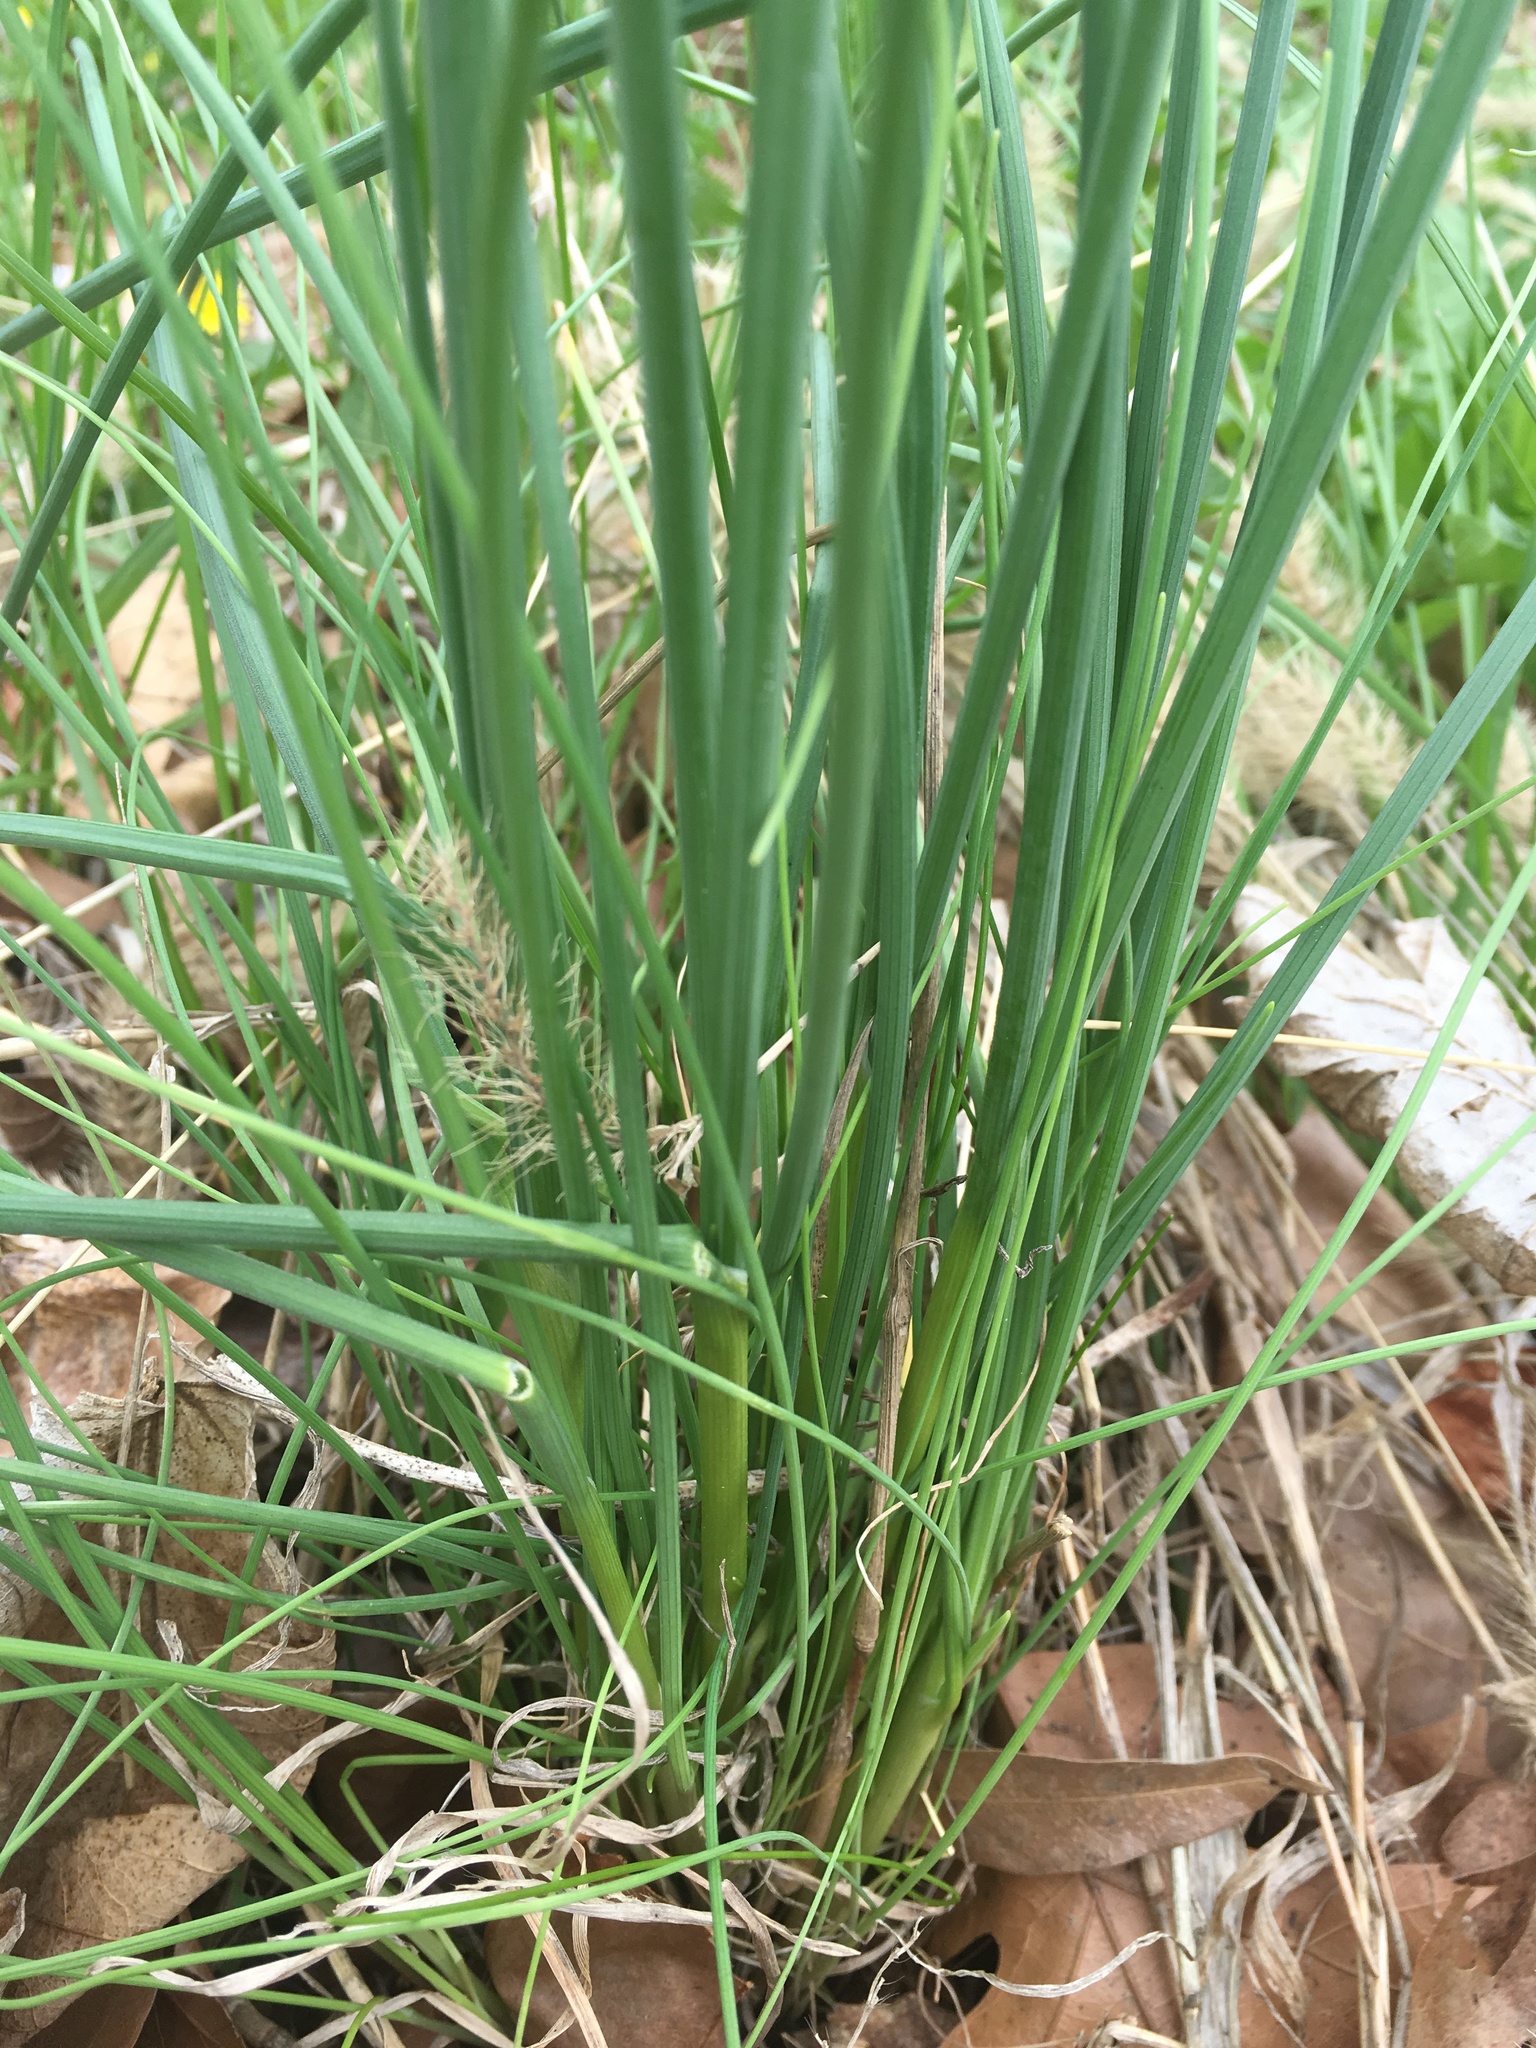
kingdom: Plantae
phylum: Tracheophyta
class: Liliopsida
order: Asparagales
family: Amaryllidaceae
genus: Allium
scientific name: Allium vineale
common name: Crow garlic
